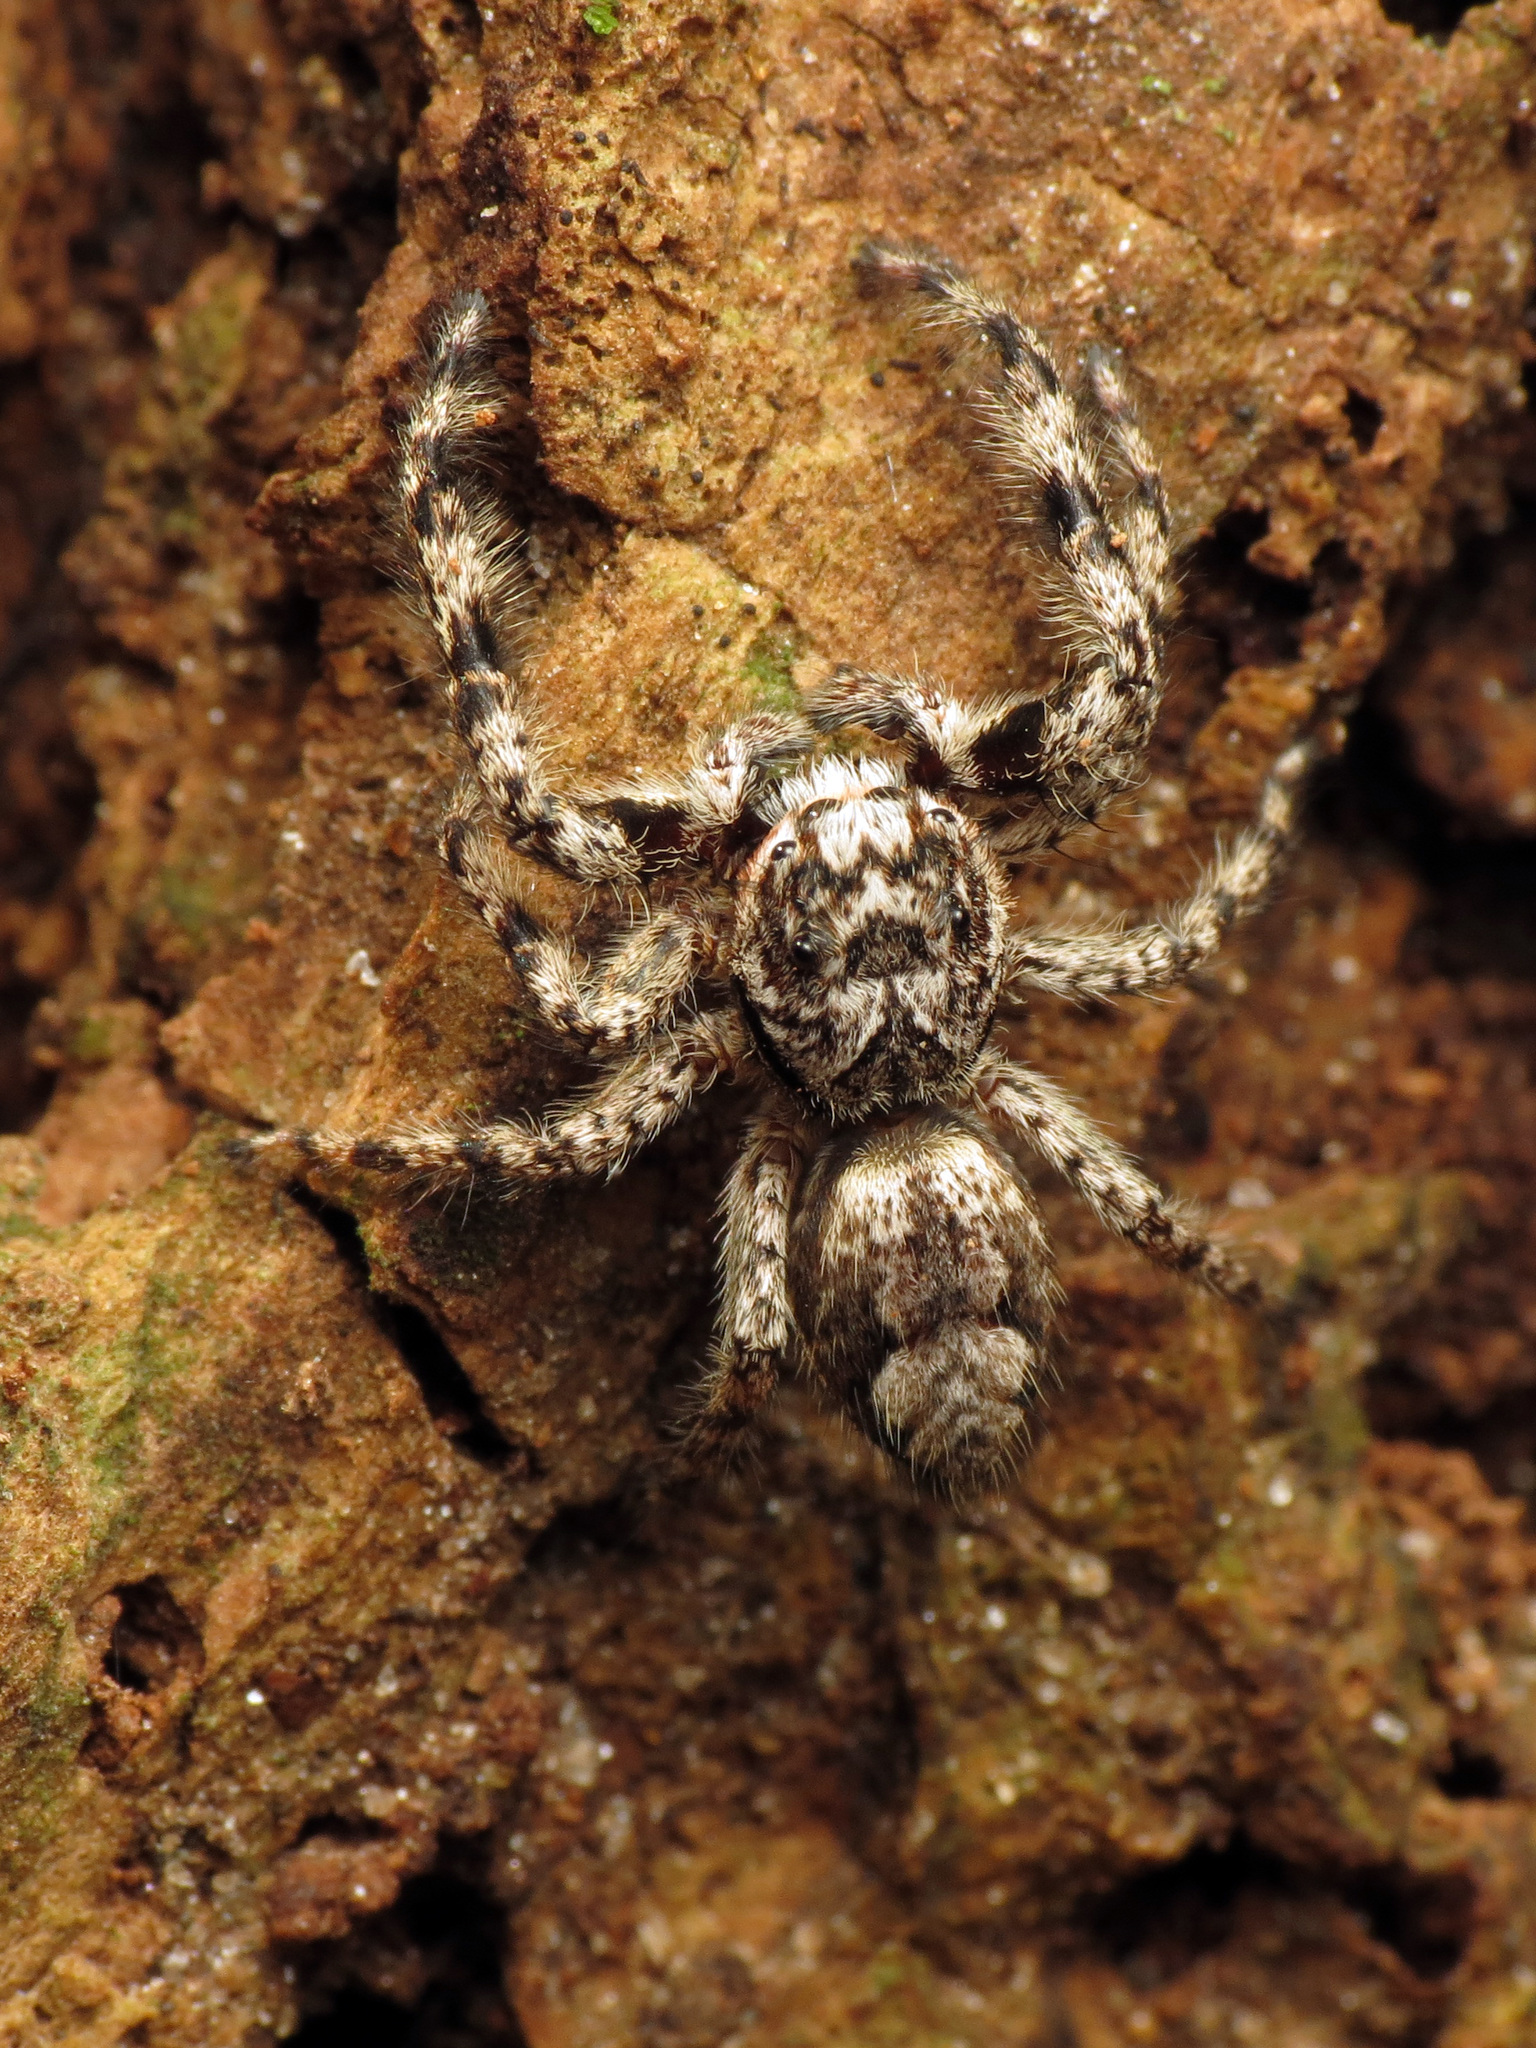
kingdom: Animalia
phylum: Arthropoda
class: Arachnida
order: Araneae
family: Salticidae
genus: Platycryptus
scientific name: Platycryptus undatus
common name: Tan jumping spider
